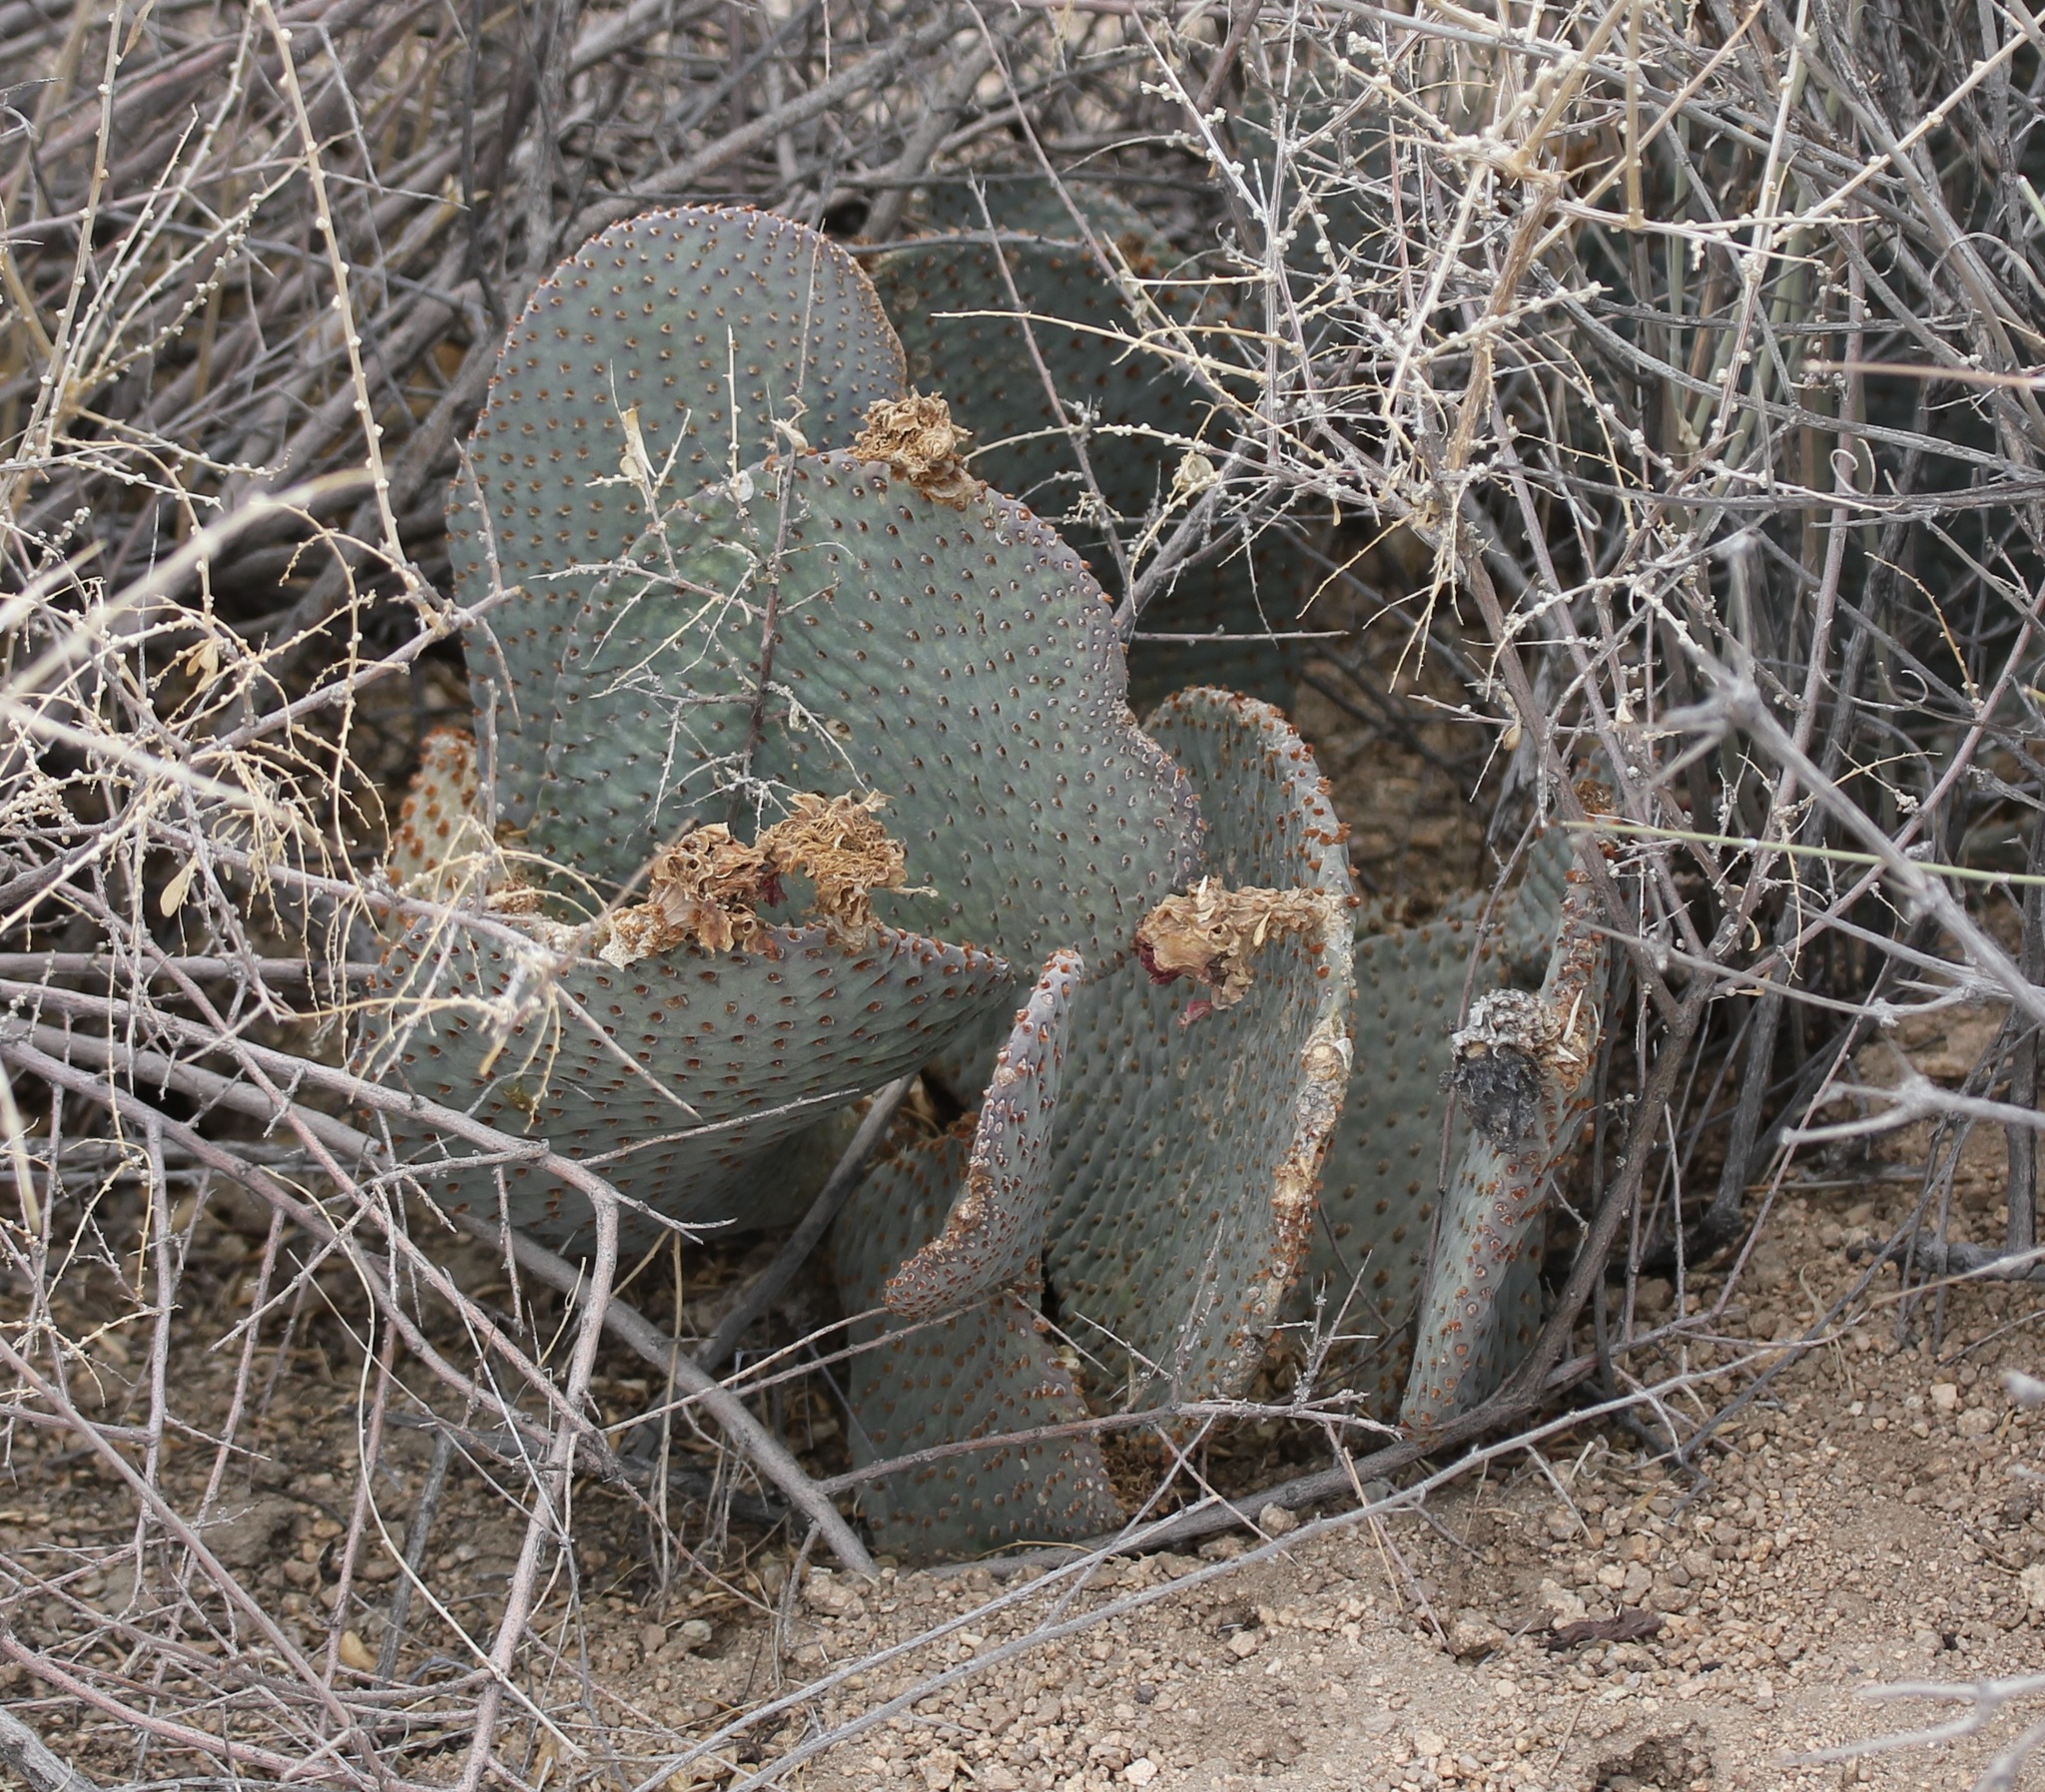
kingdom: Plantae
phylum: Tracheophyta
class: Magnoliopsida
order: Caryophyllales
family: Cactaceae
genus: Opuntia
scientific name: Opuntia basilaris
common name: Beavertail prickly-pear
